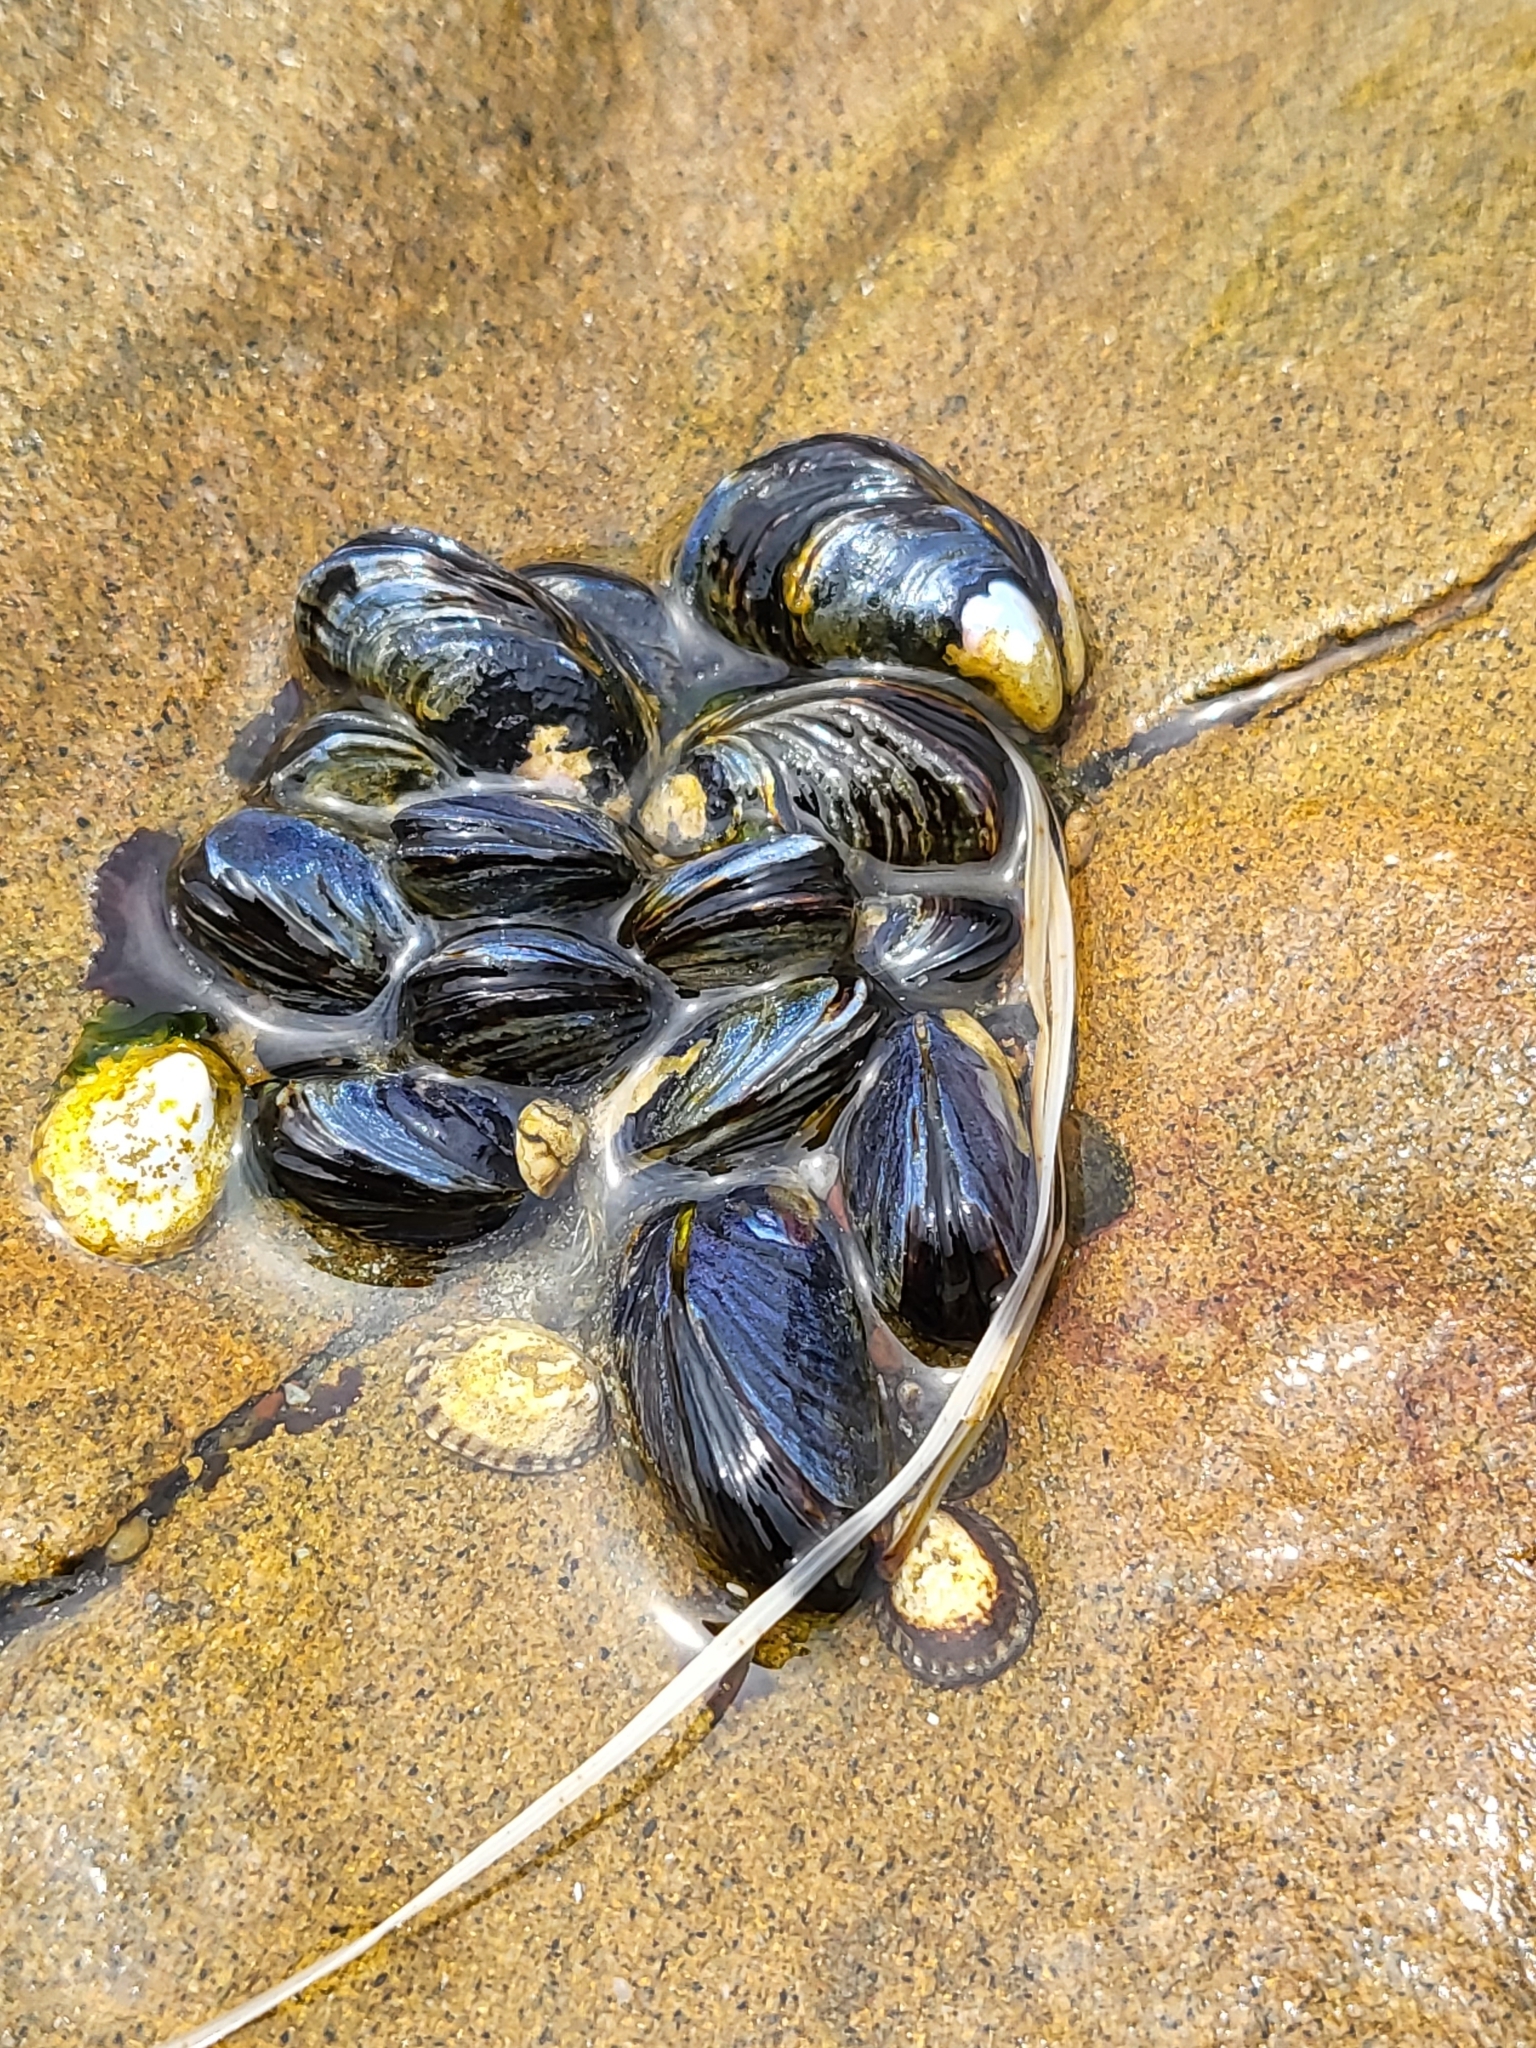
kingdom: Animalia
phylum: Mollusca
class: Bivalvia
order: Mytilida
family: Mytilidae
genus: Mytilus
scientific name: Mytilus californianus
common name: California mussel
